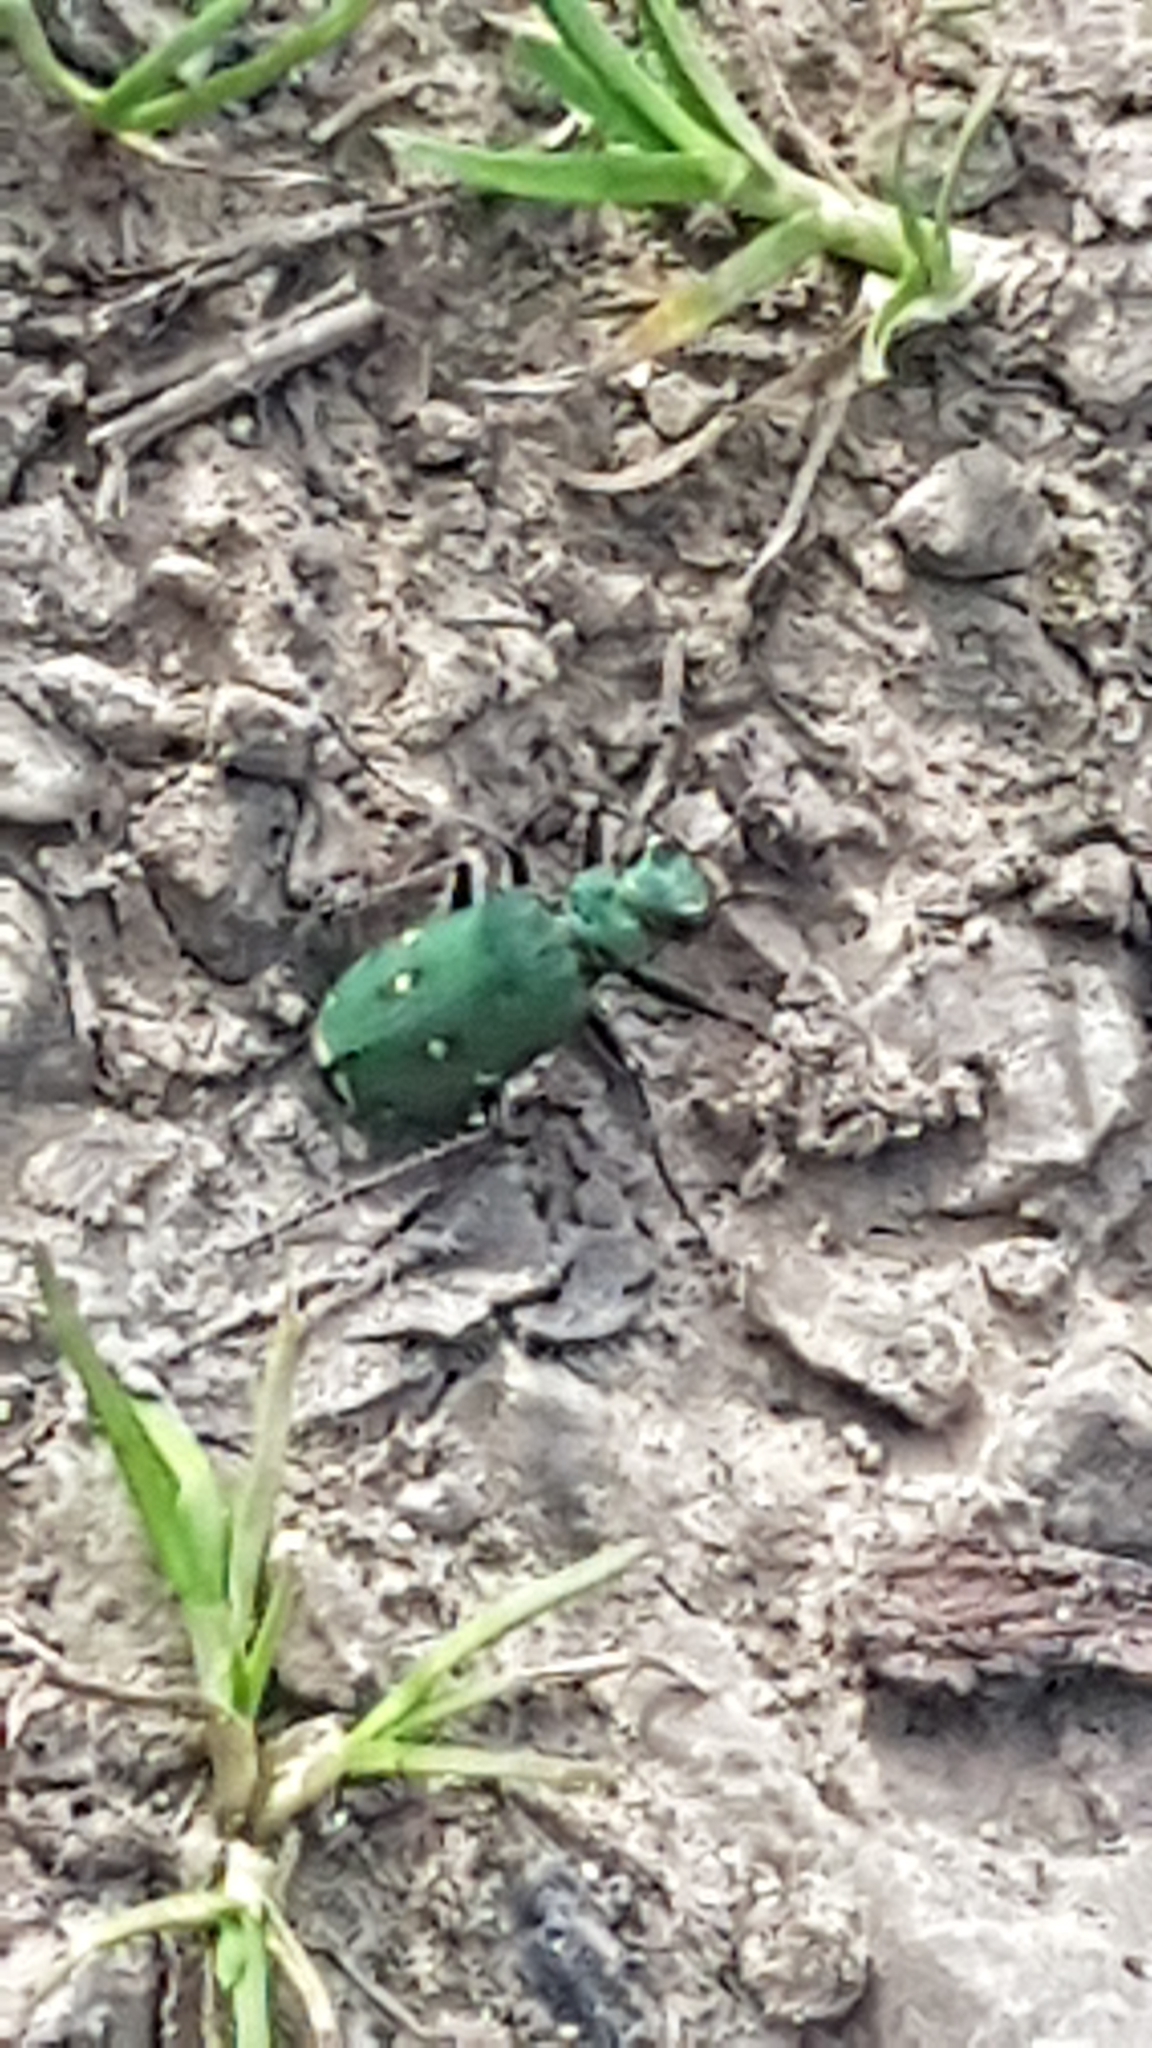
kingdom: Animalia
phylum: Arthropoda
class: Insecta
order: Coleoptera
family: Carabidae
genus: Cicindela
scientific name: Cicindela campestris
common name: Common tiger beetle
